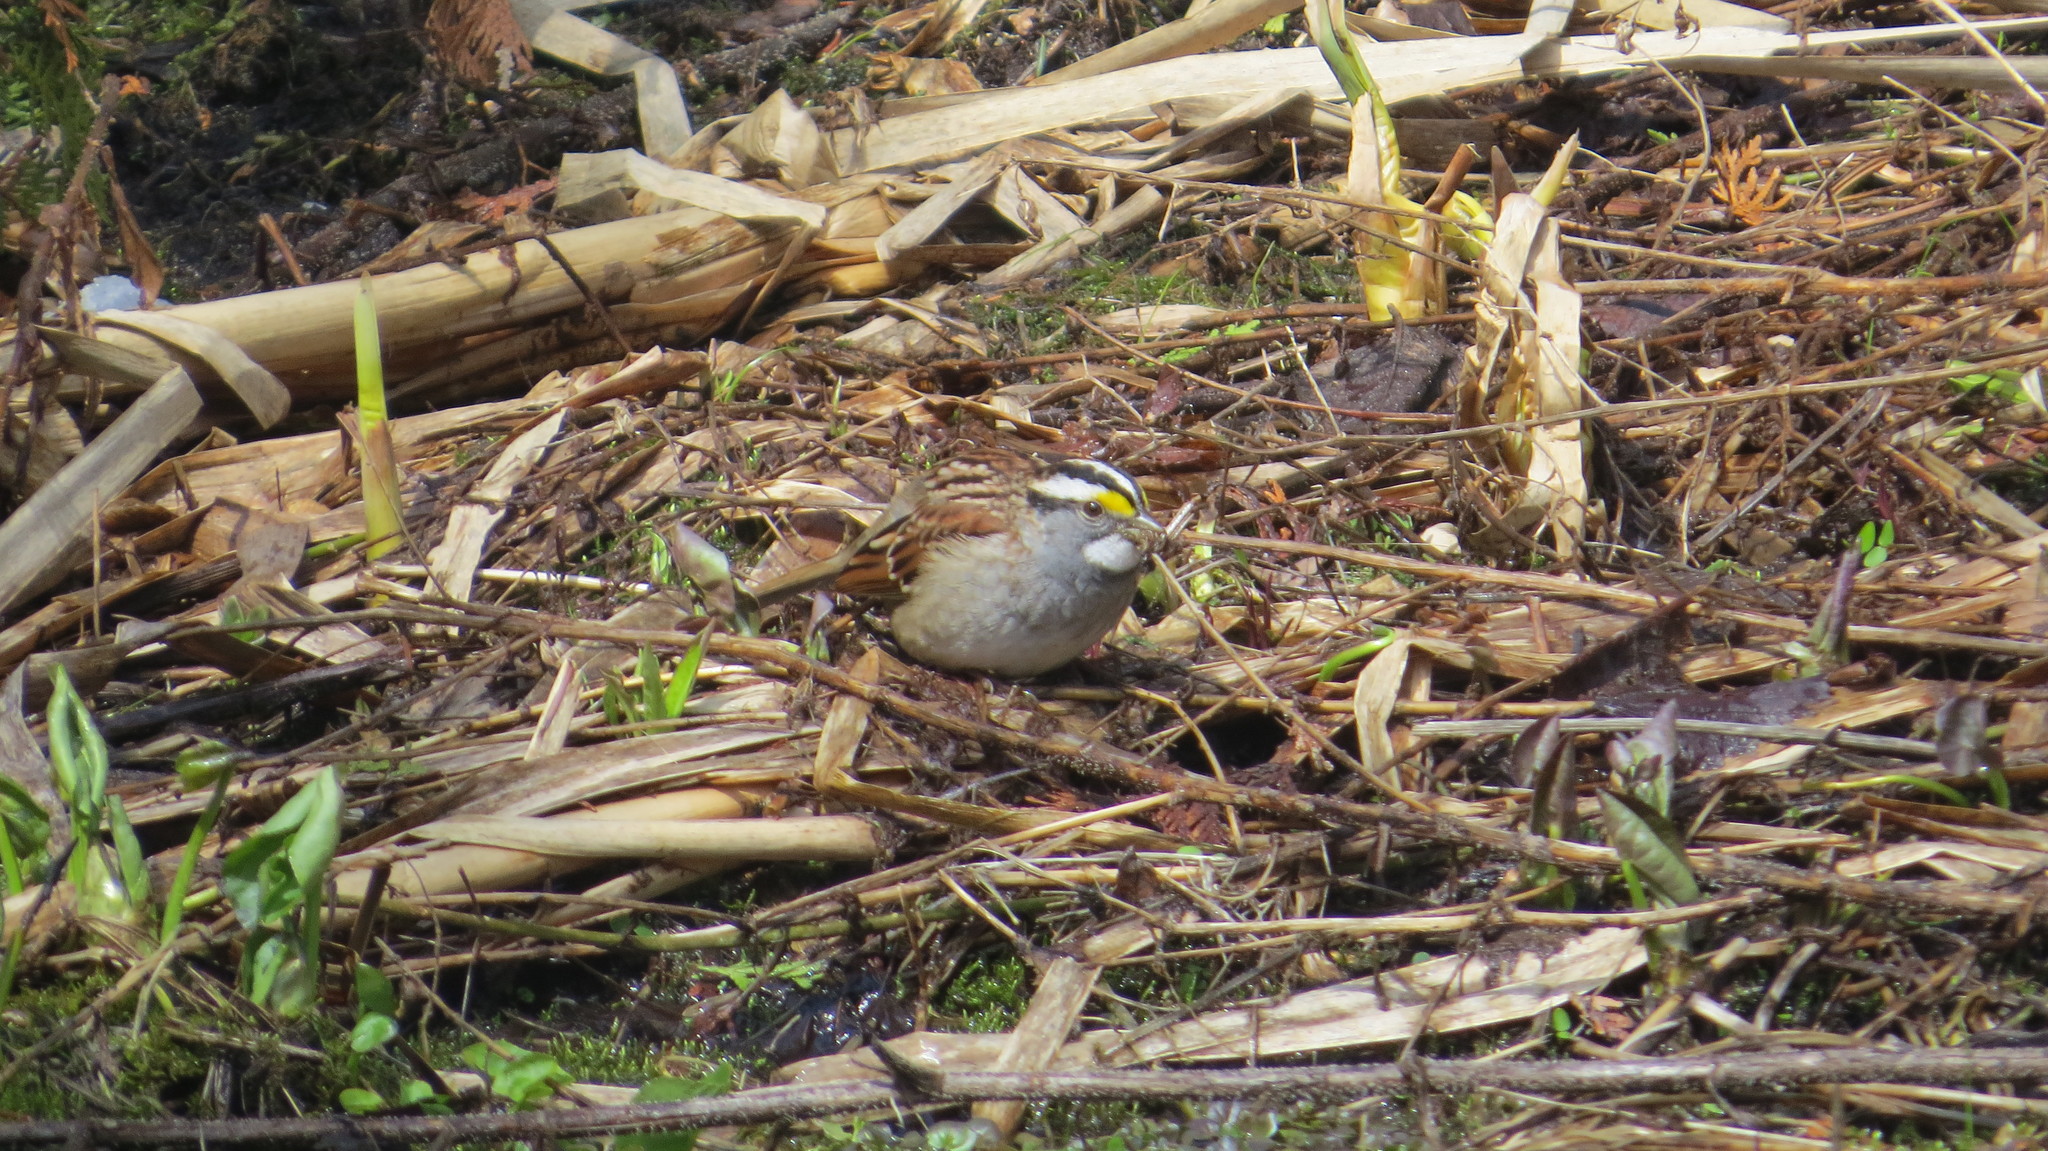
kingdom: Animalia
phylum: Chordata
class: Aves
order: Passeriformes
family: Passerellidae
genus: Zonotrichia
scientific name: Zonotrichia albicollis
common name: White-throated sparrow
